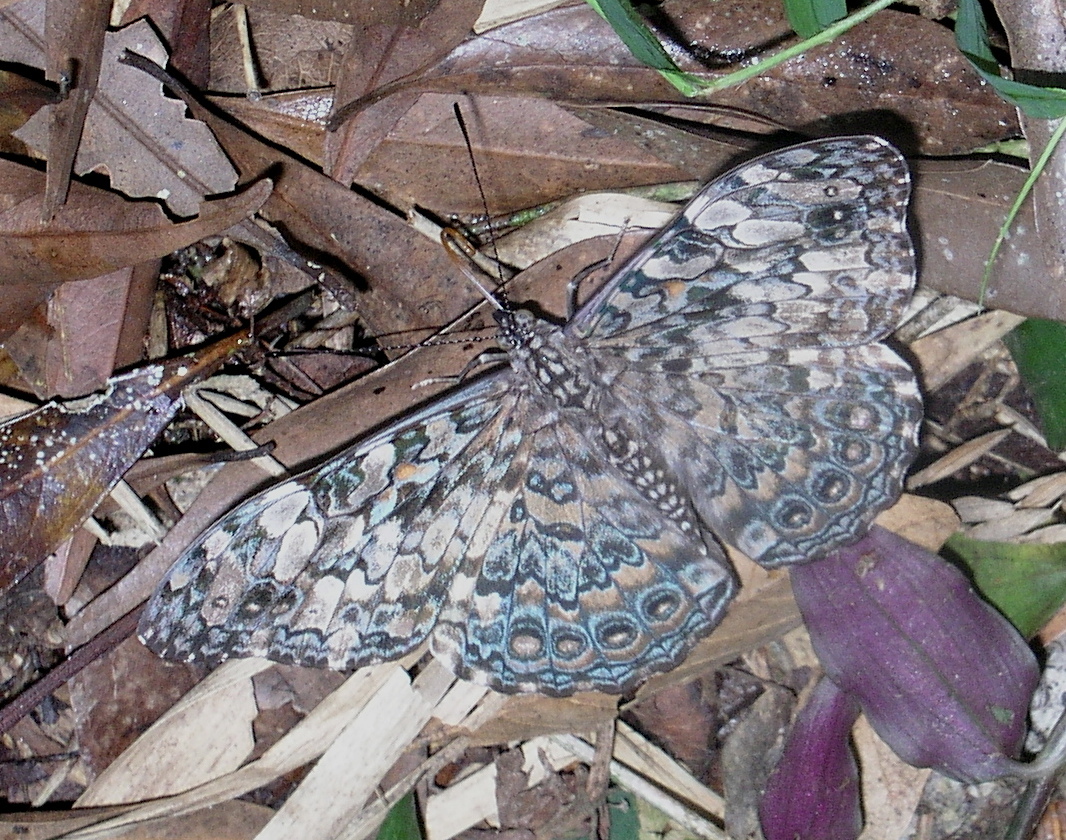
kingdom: Animalia
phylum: Arthropoda
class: Insecta
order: Lepidoptera
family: Nymphalidae
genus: Hamadryas
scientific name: Hamadryas epinome
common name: Epinome cracker
